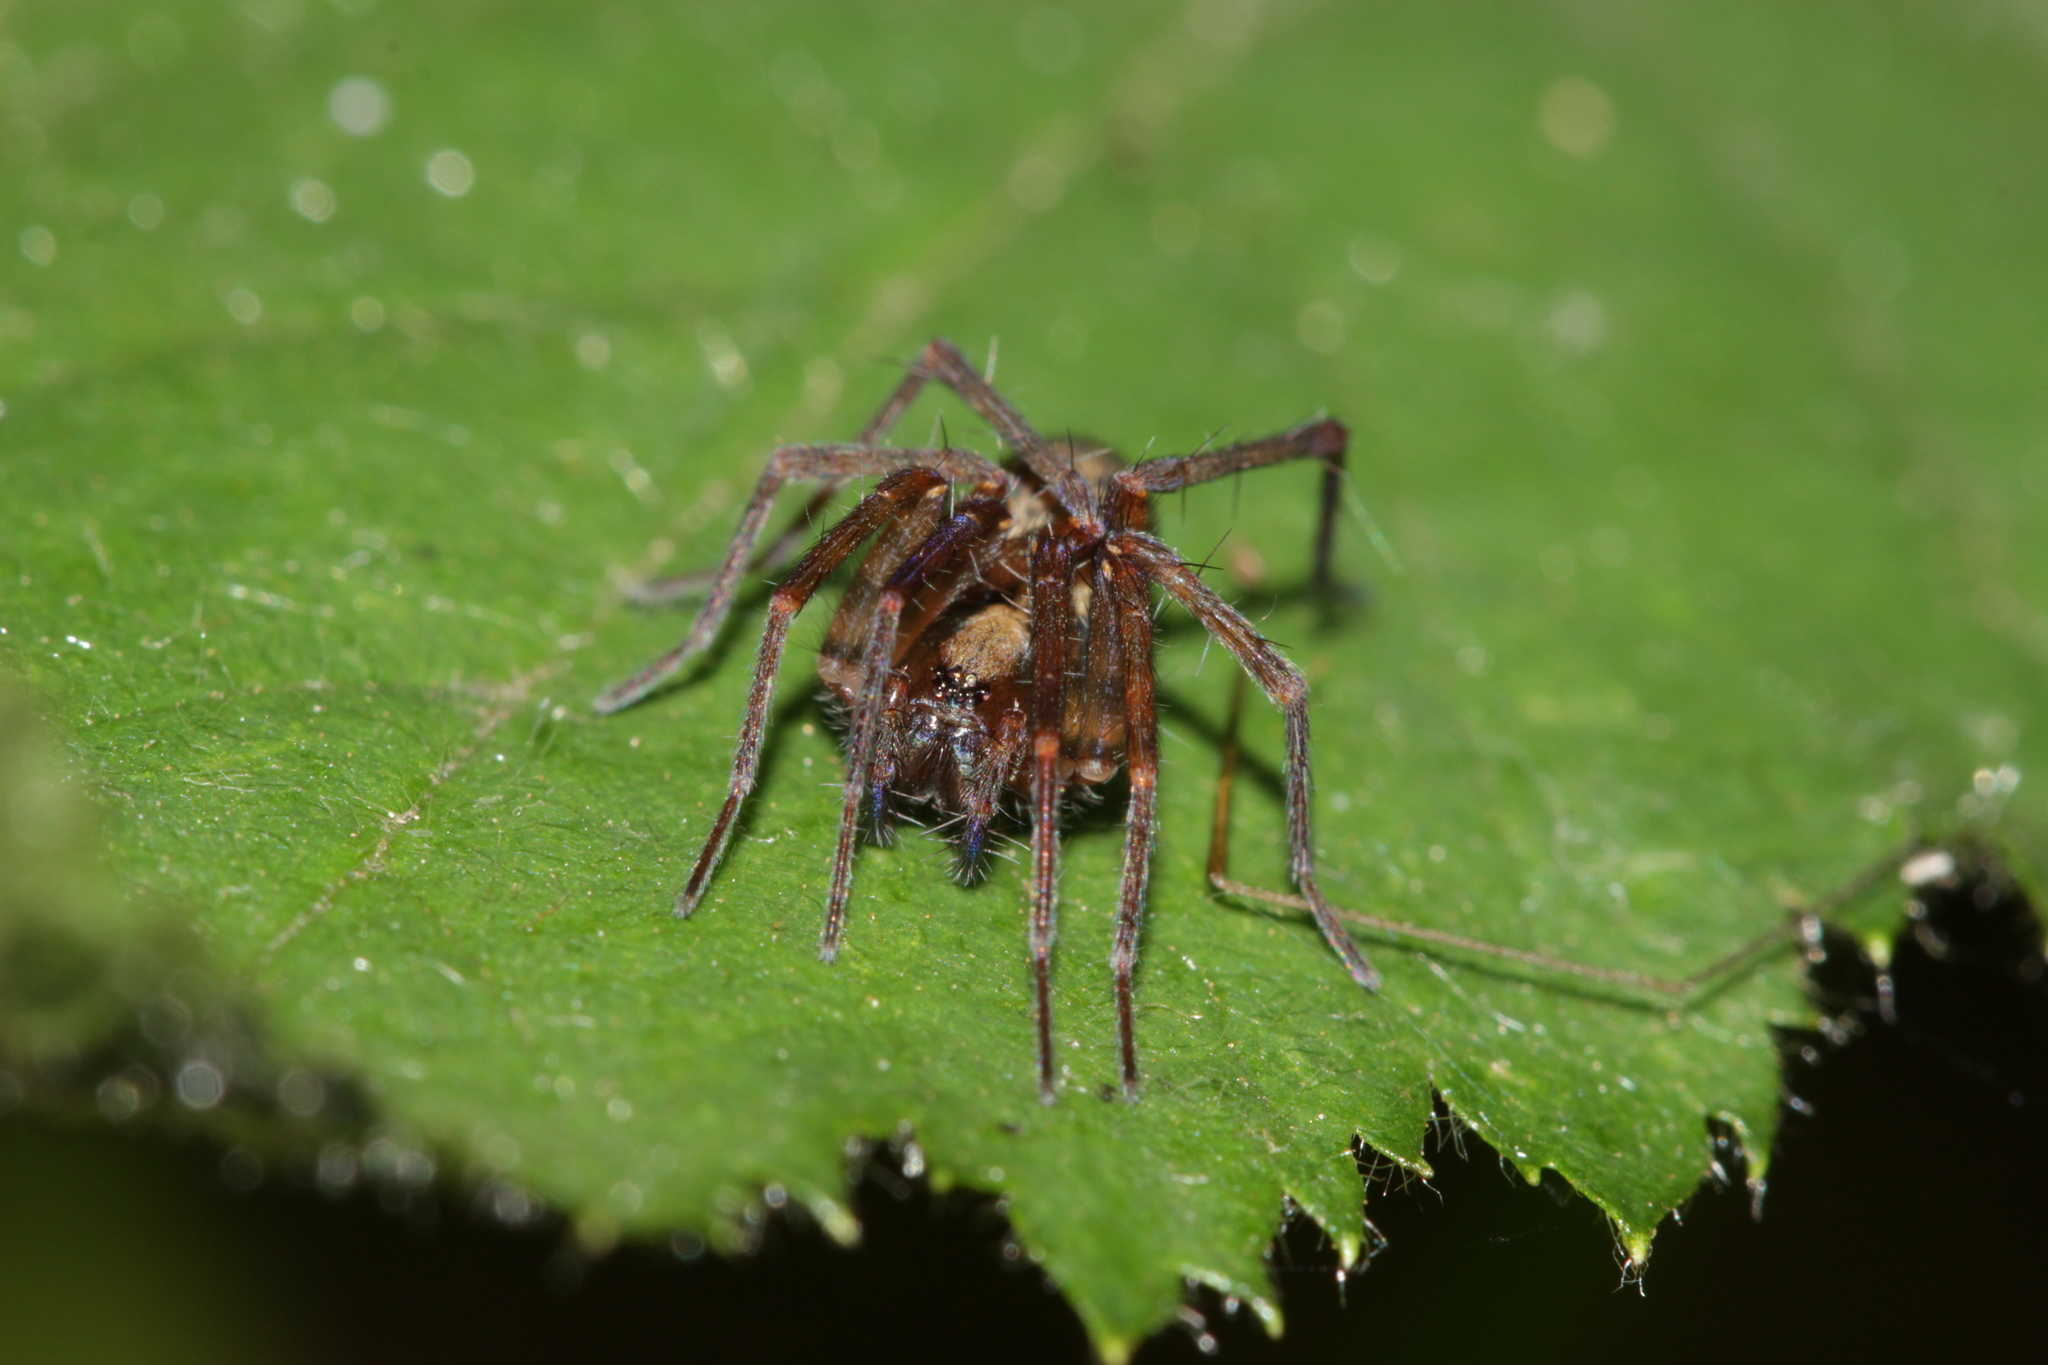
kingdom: Animalia
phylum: Arthropoda
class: Arachnida
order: Araneae
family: Agelenidae
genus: Histopona
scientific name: Histopona torpida
